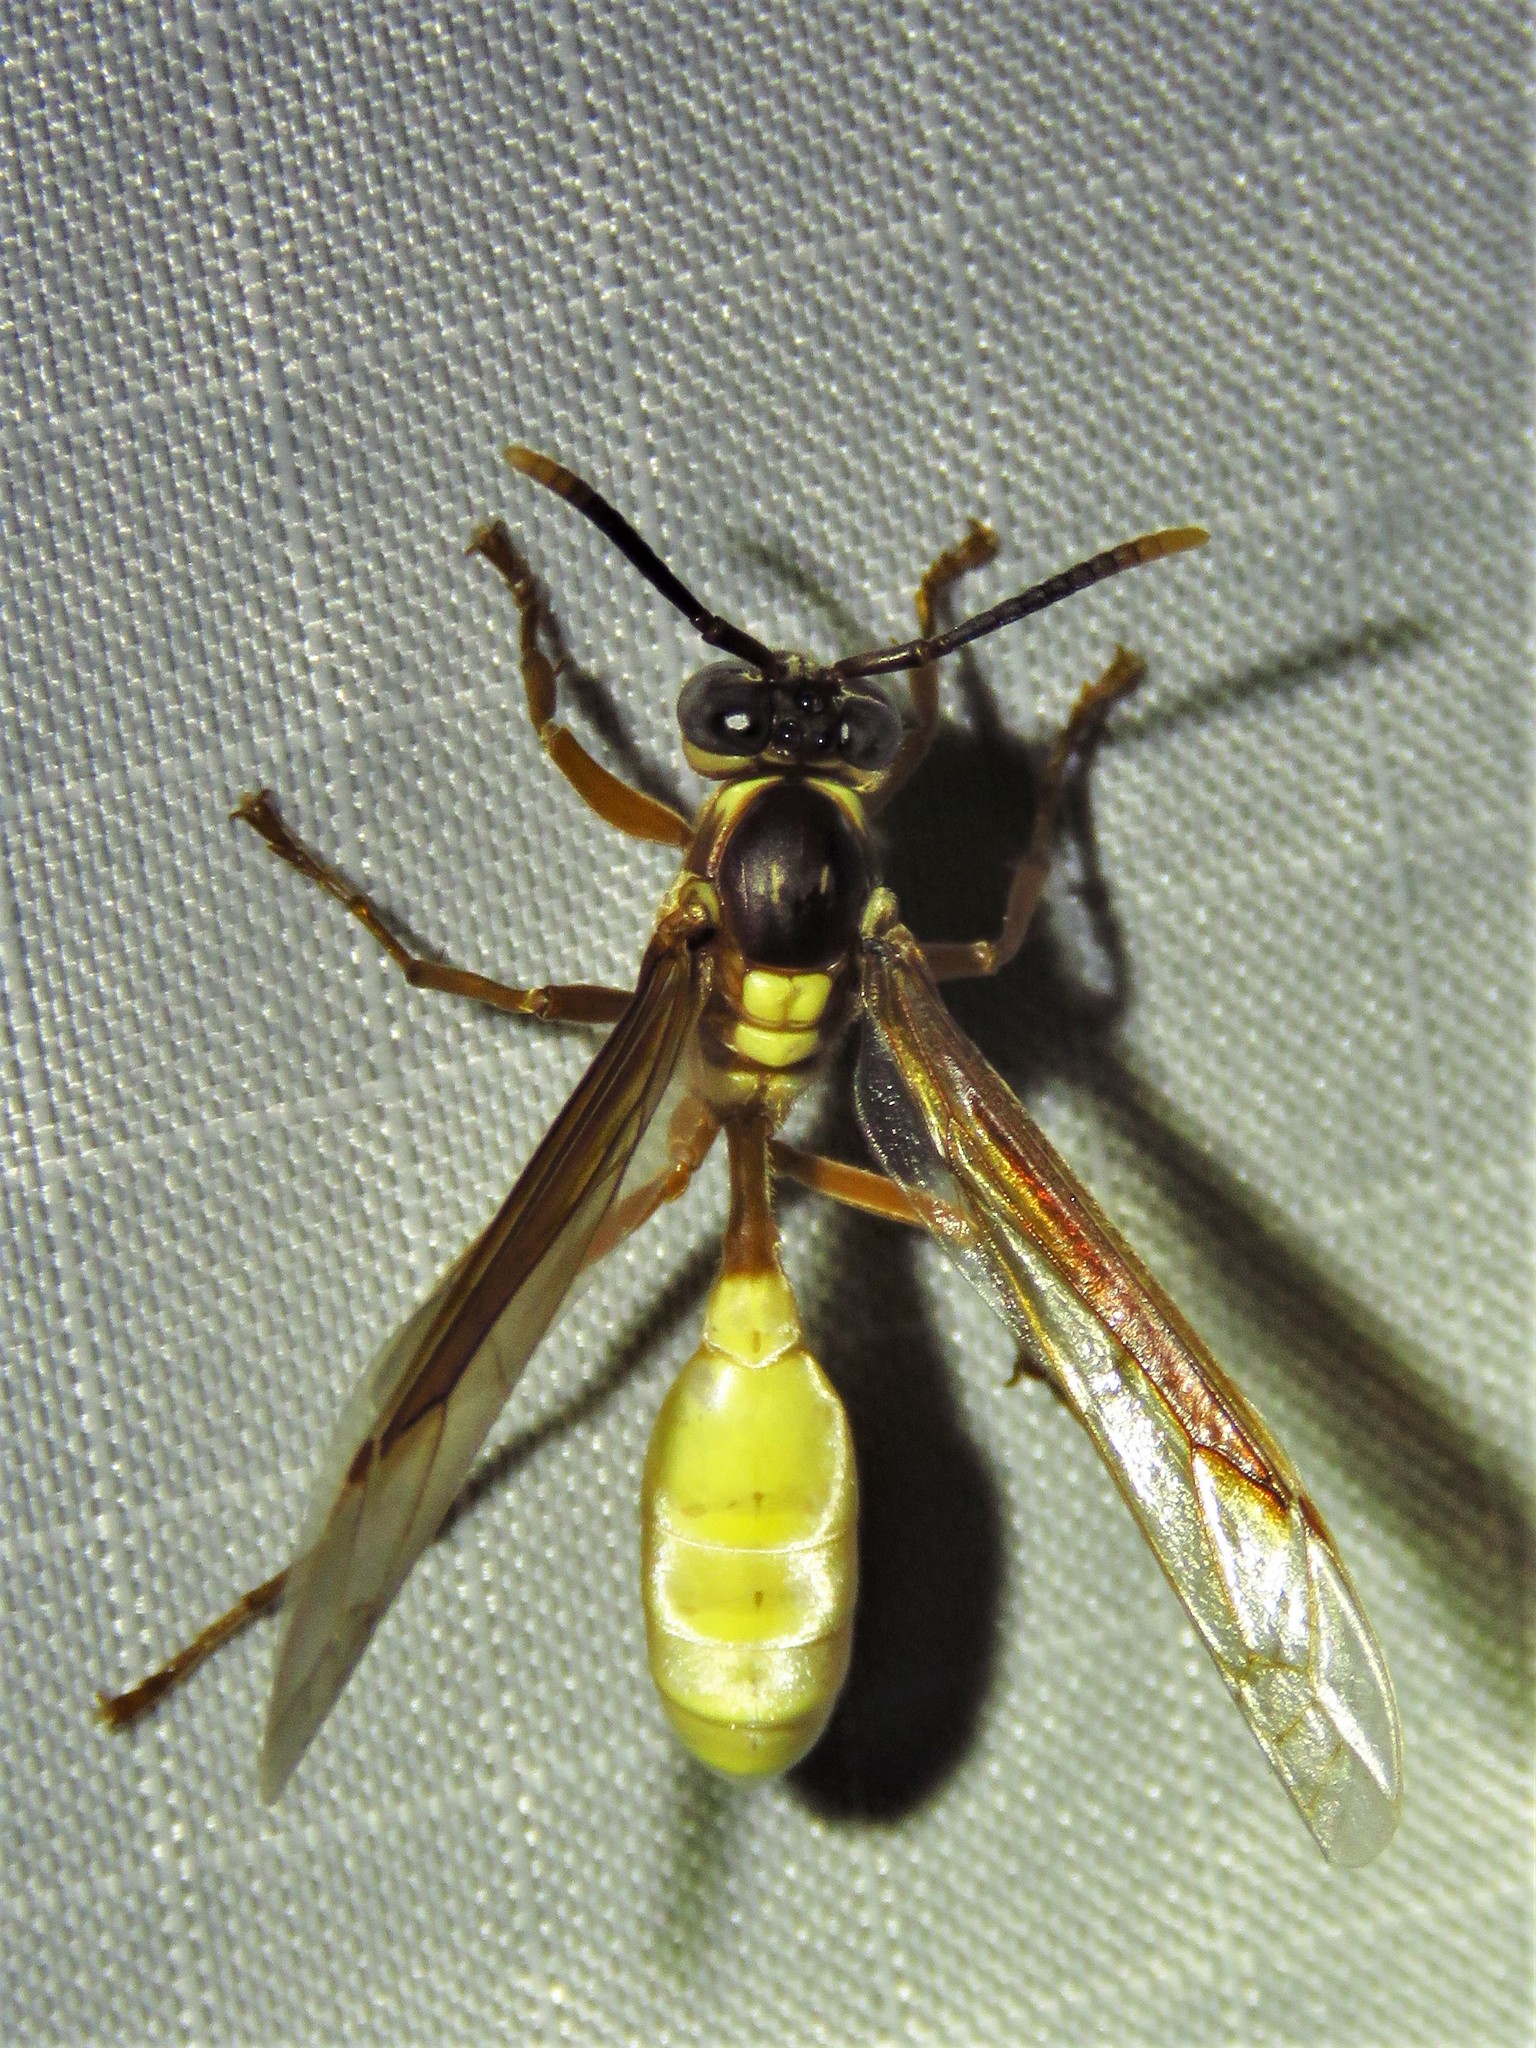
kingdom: Animalia
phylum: Arthropoda
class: Insecta
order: Hymenoptera
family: Vespidae
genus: Apoica
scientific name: Apoica pallens
